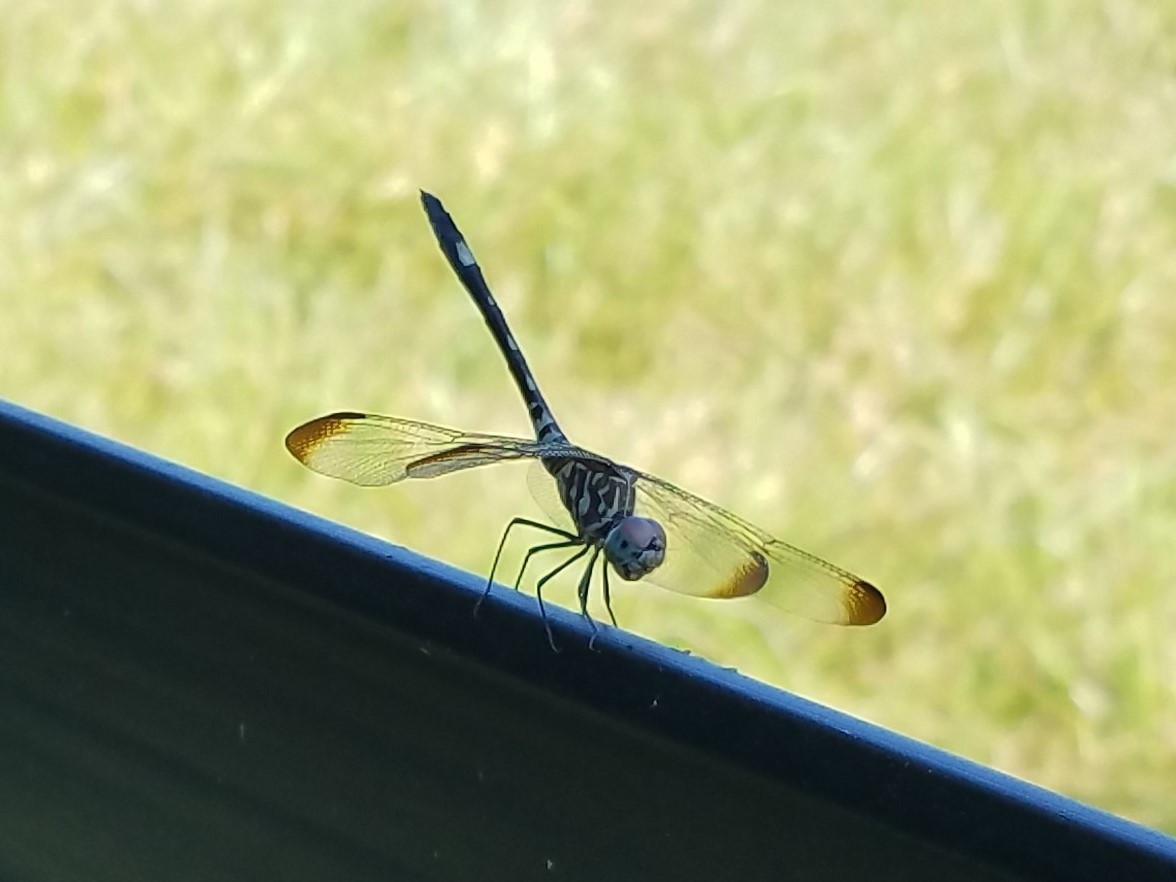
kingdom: Animalia
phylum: Arthropoda
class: Insecta
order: Odonata
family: Libellulidae
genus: Dythemis
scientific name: Dythemis velox
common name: Swift setwing
